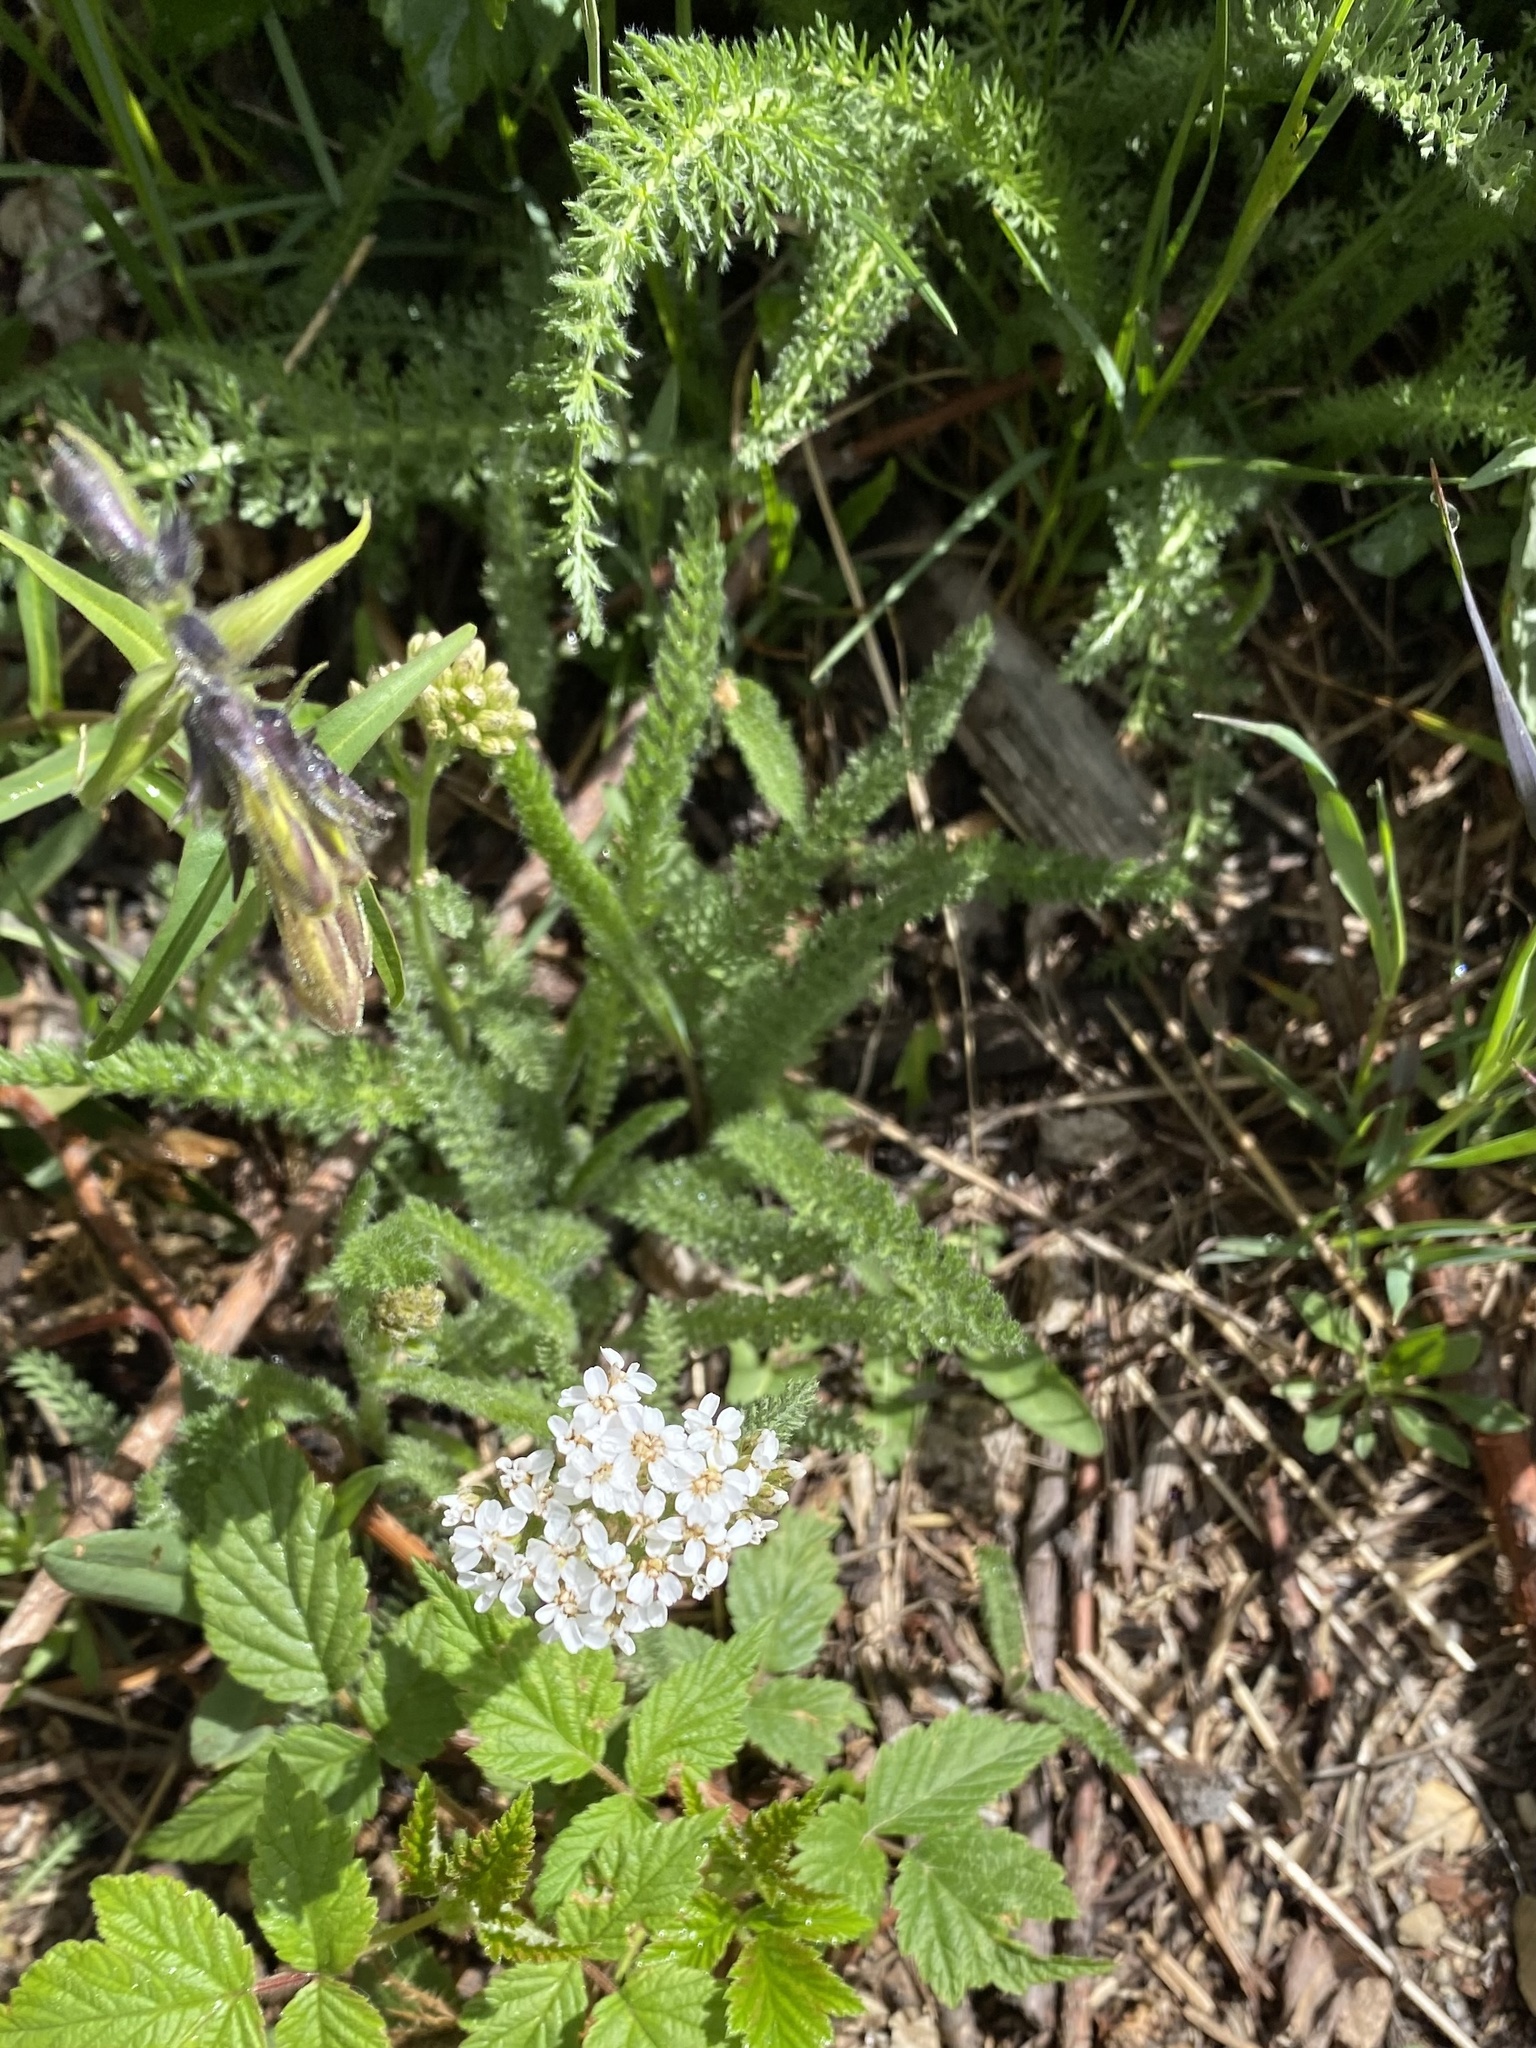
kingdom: Plantae
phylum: Tracheophyta
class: Magnoliopsida
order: Asterales
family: Asteraceae
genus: Achillea
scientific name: Achillea millefolium
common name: Yarrow
